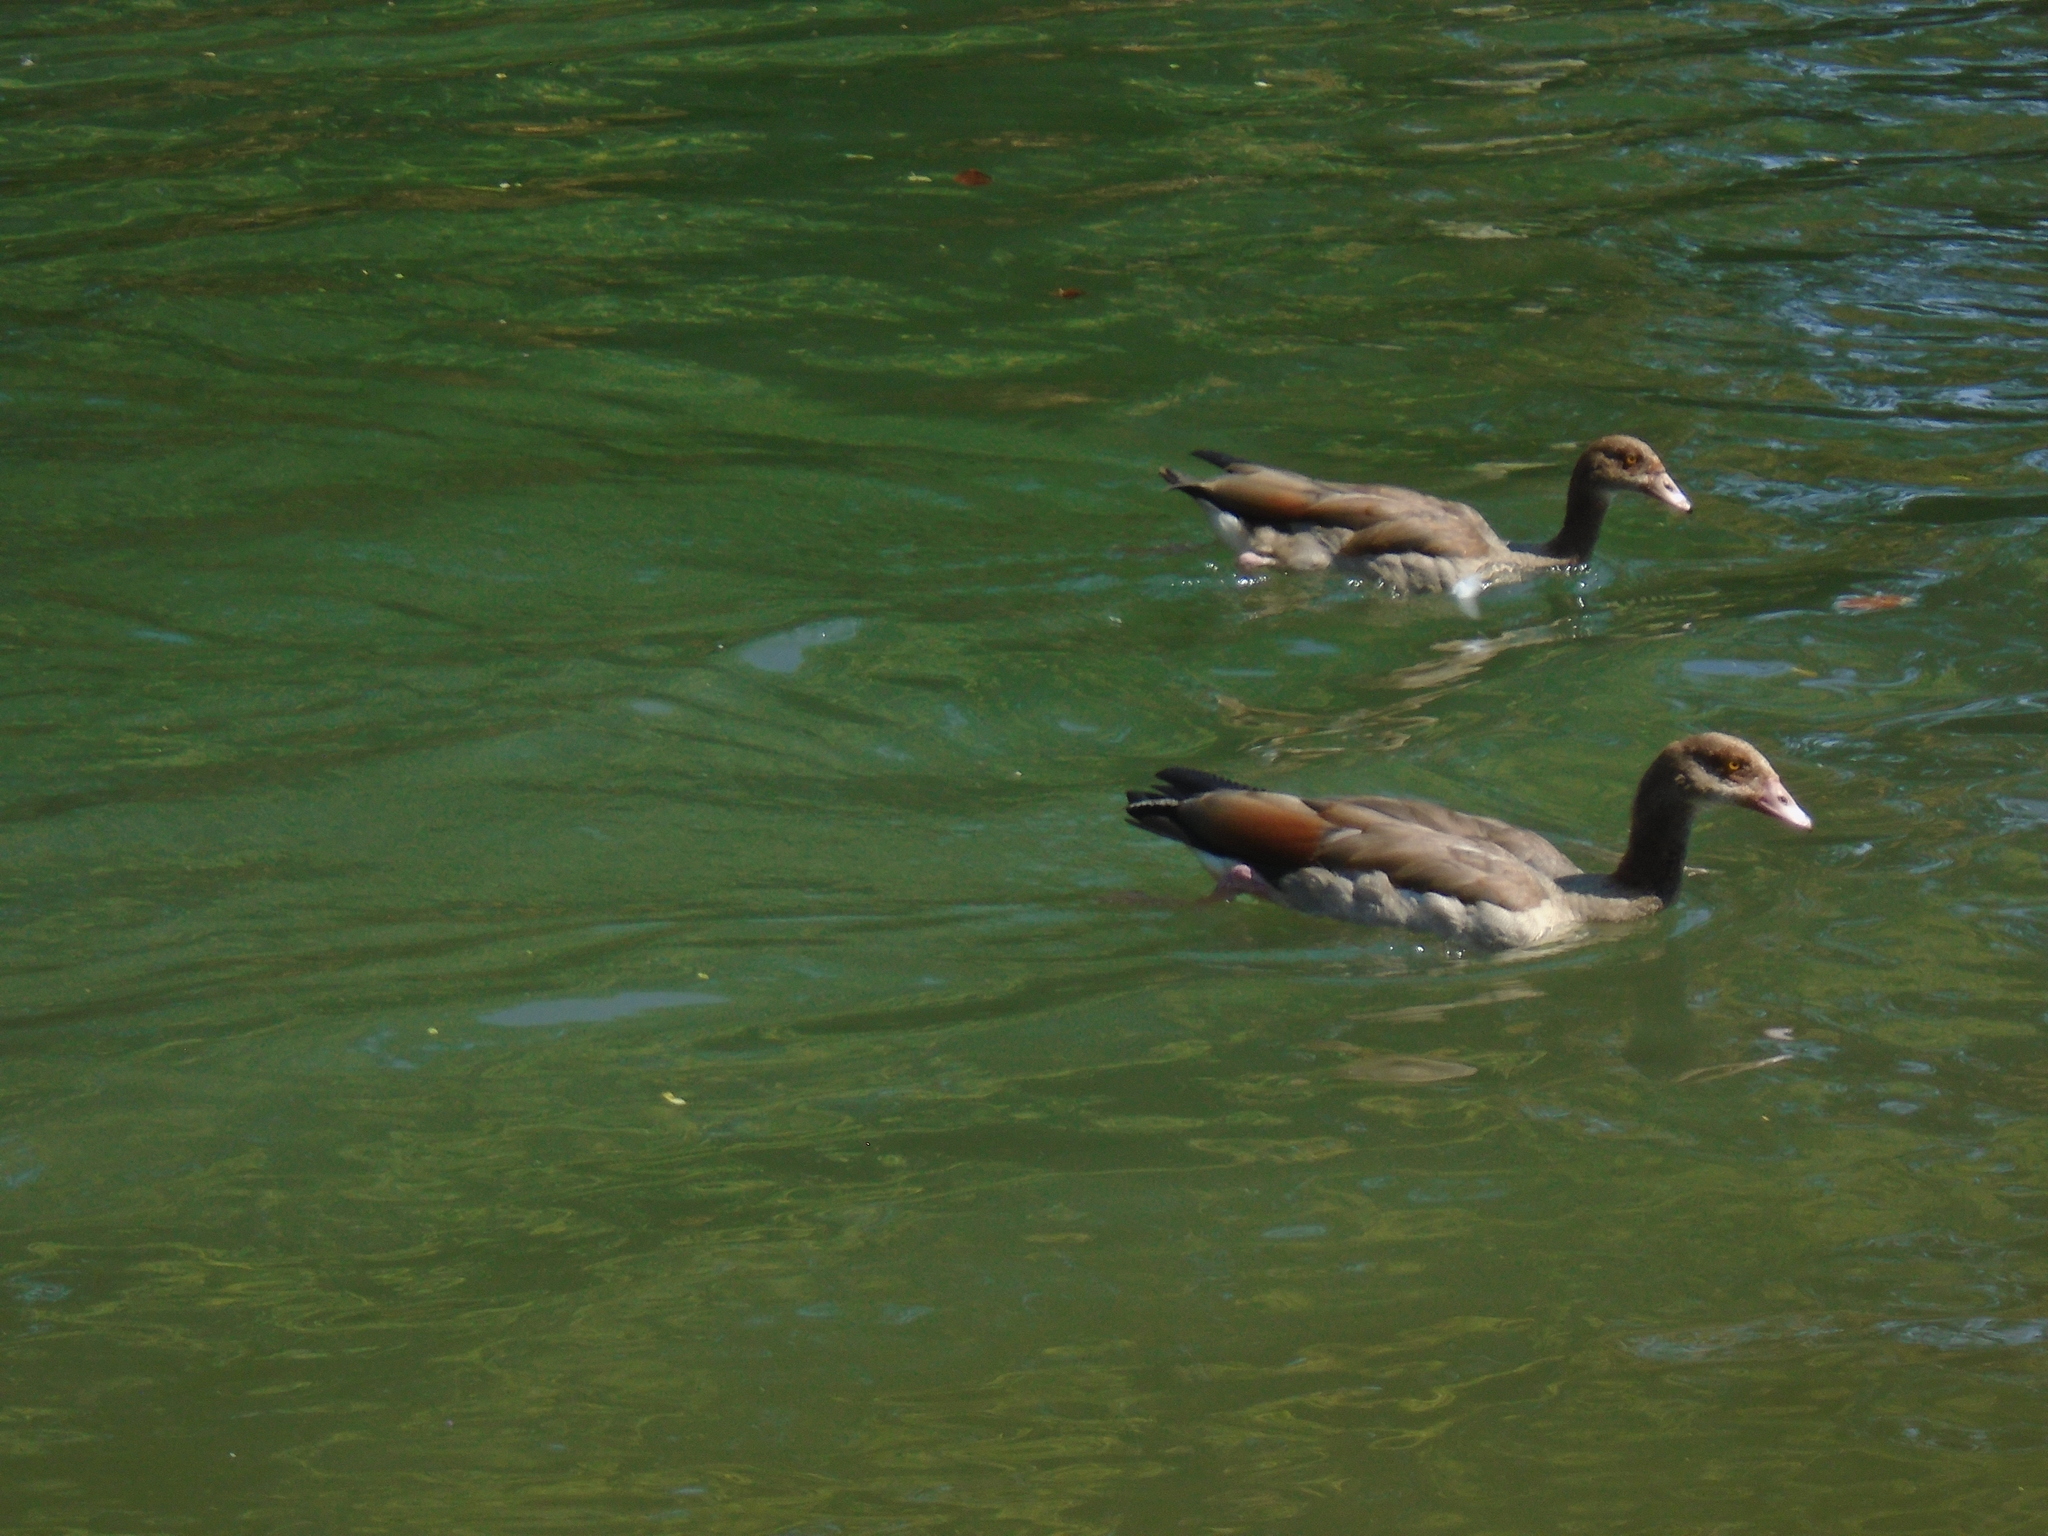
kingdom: Animalia
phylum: Chordata
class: Aves
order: Anseriformes
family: Anatidae
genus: Alopochen
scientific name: Alopochen aegyptiaca
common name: Egyptian goose
